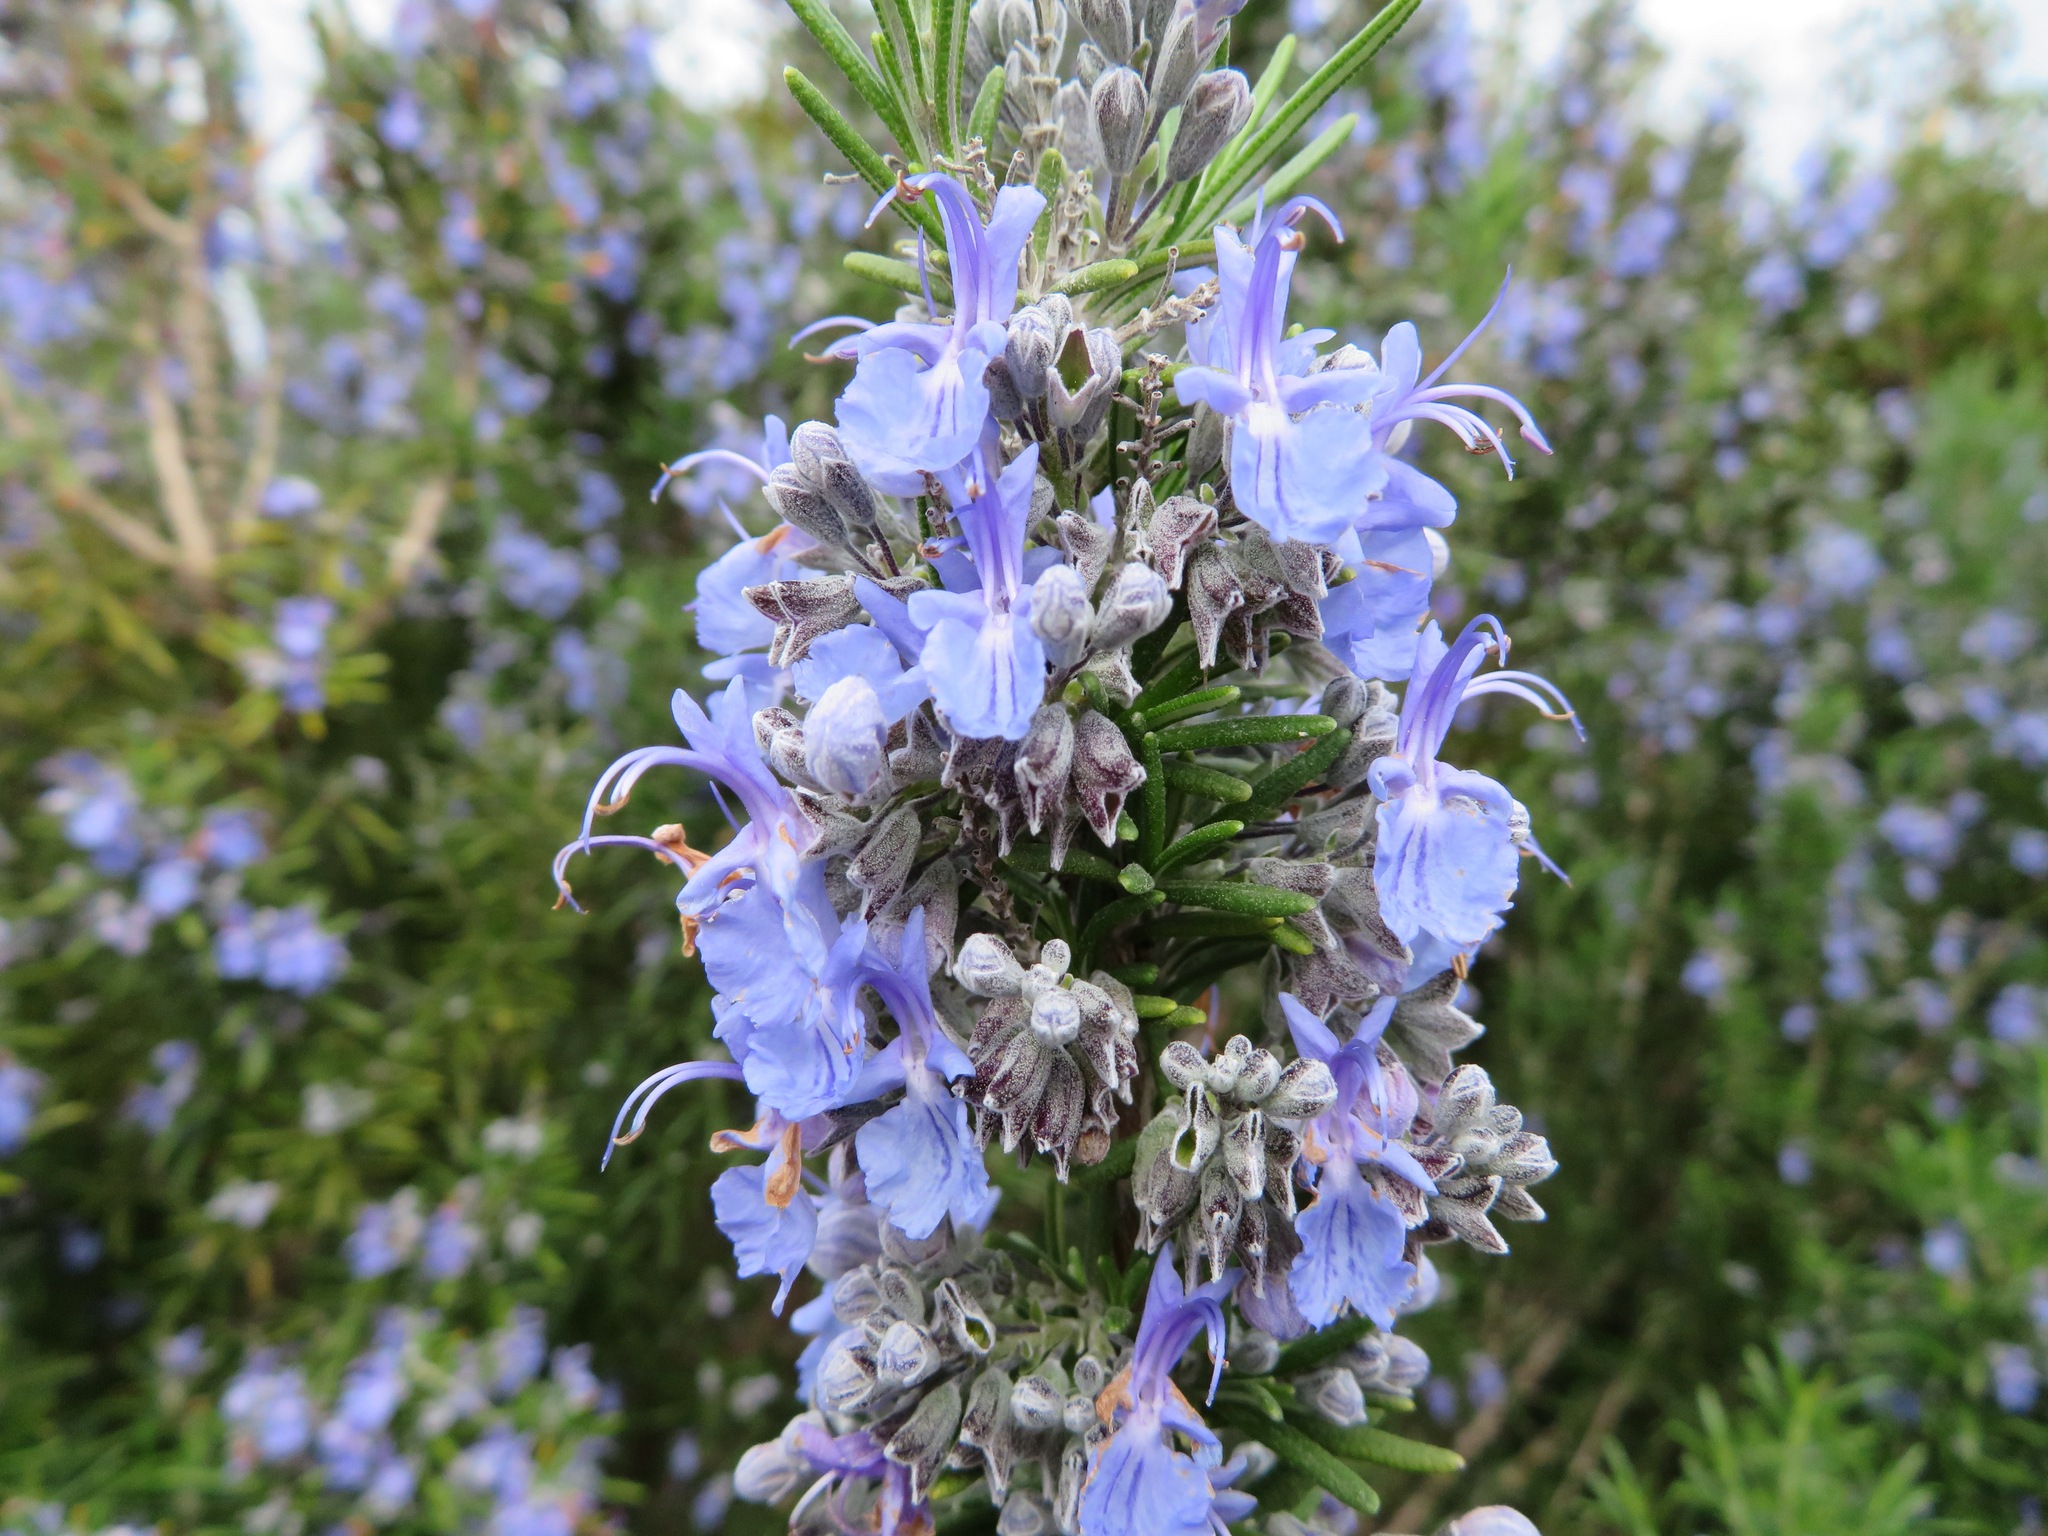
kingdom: Plantae
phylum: Tracheophyta
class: Magnoliopsida
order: Lamiales
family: Lamiaceae
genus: Salvia
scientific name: Salvia rosmarinus
